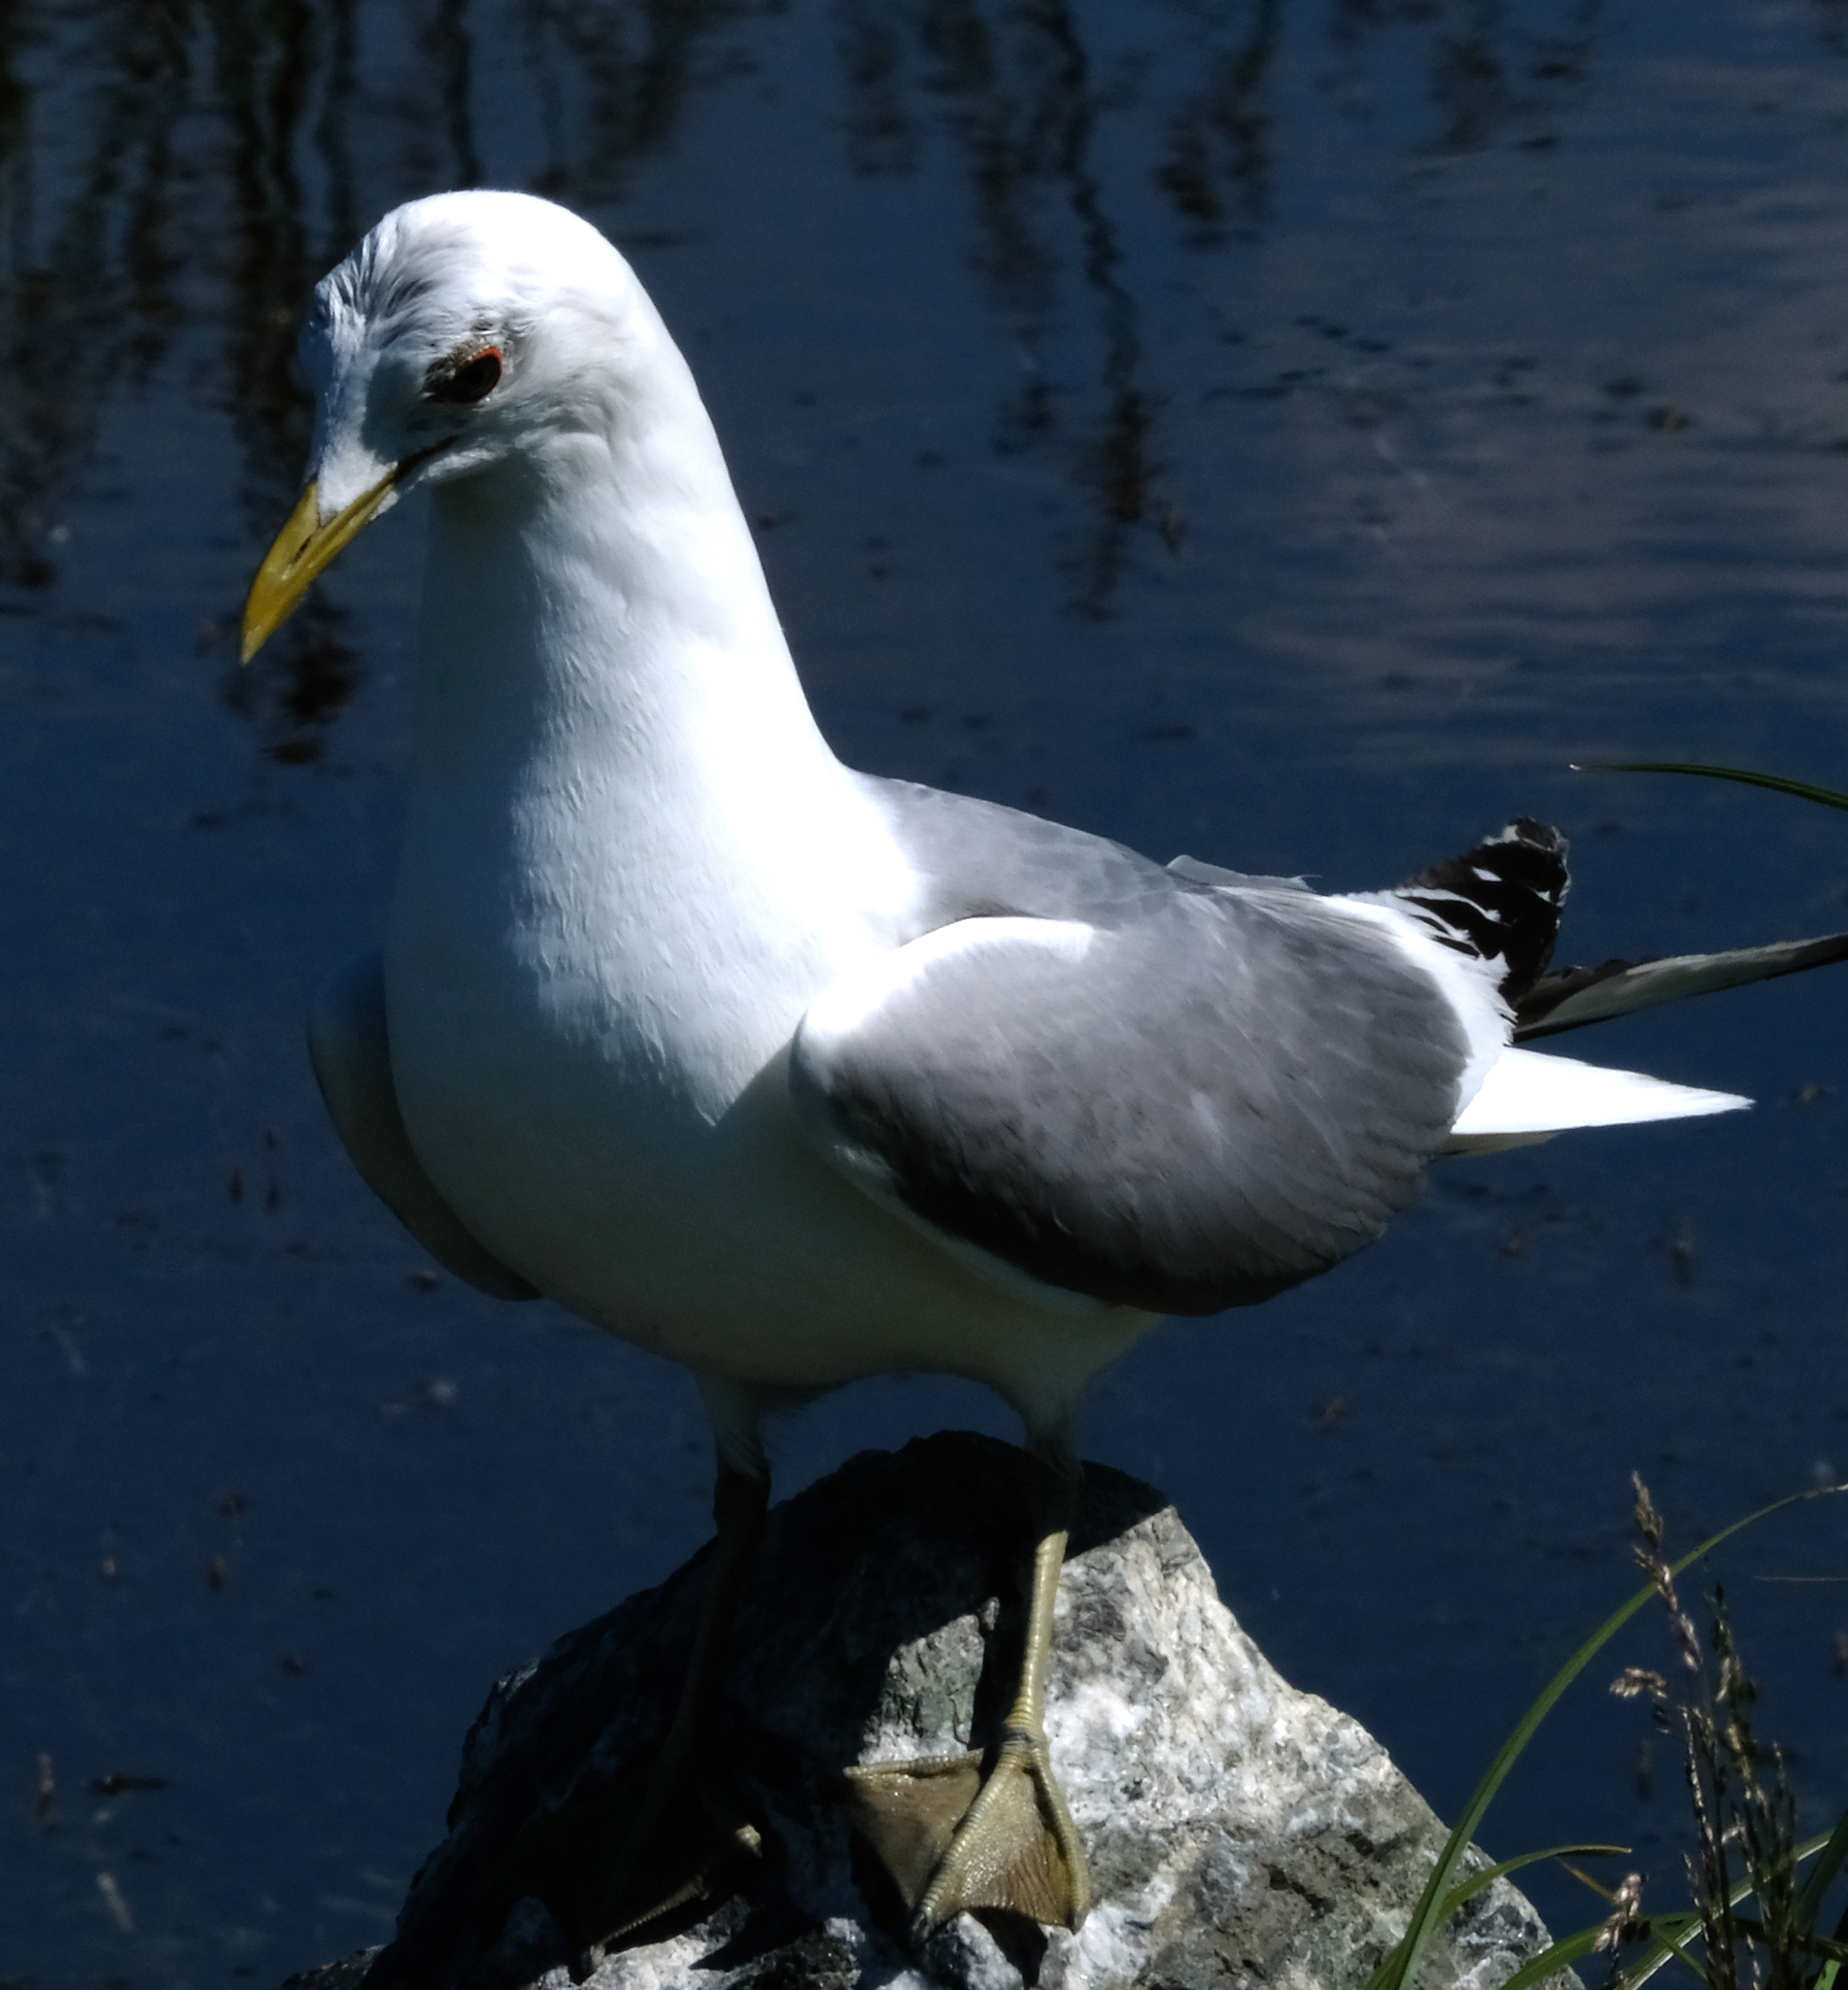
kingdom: Animalia
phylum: Chordata
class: Aves
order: Charadriiformes
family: Laridae
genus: Larus
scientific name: Larus brachyrhynchus
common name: Short-billed gull
